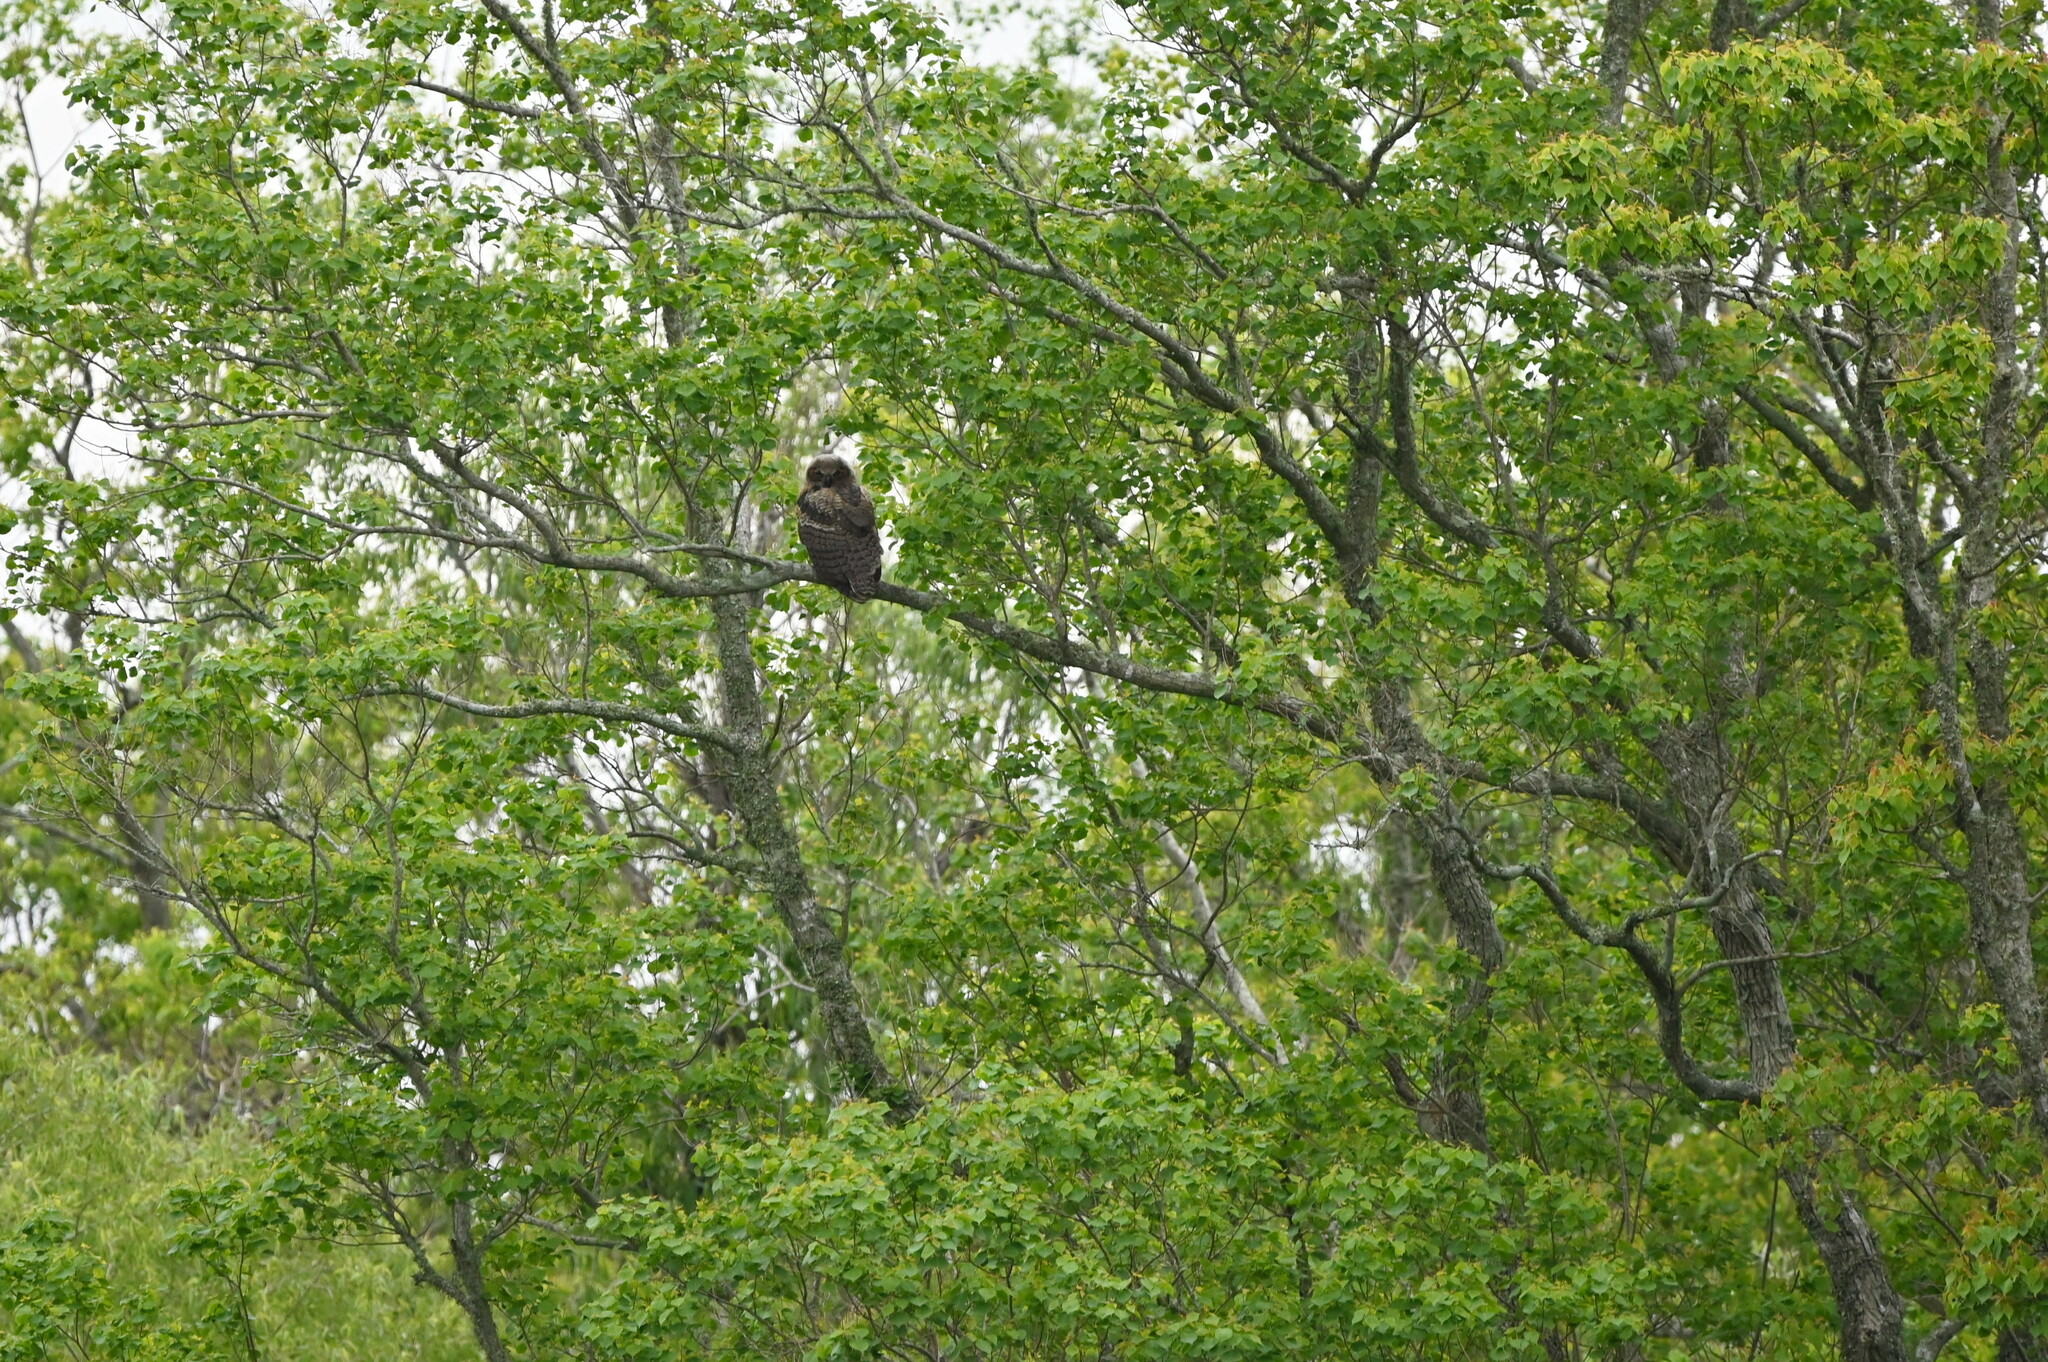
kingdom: Animalia
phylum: Chordata
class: Aves
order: Strigiformes
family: Strigidae
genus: Bubo
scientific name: Bubo virginianus
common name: Great horned owl
